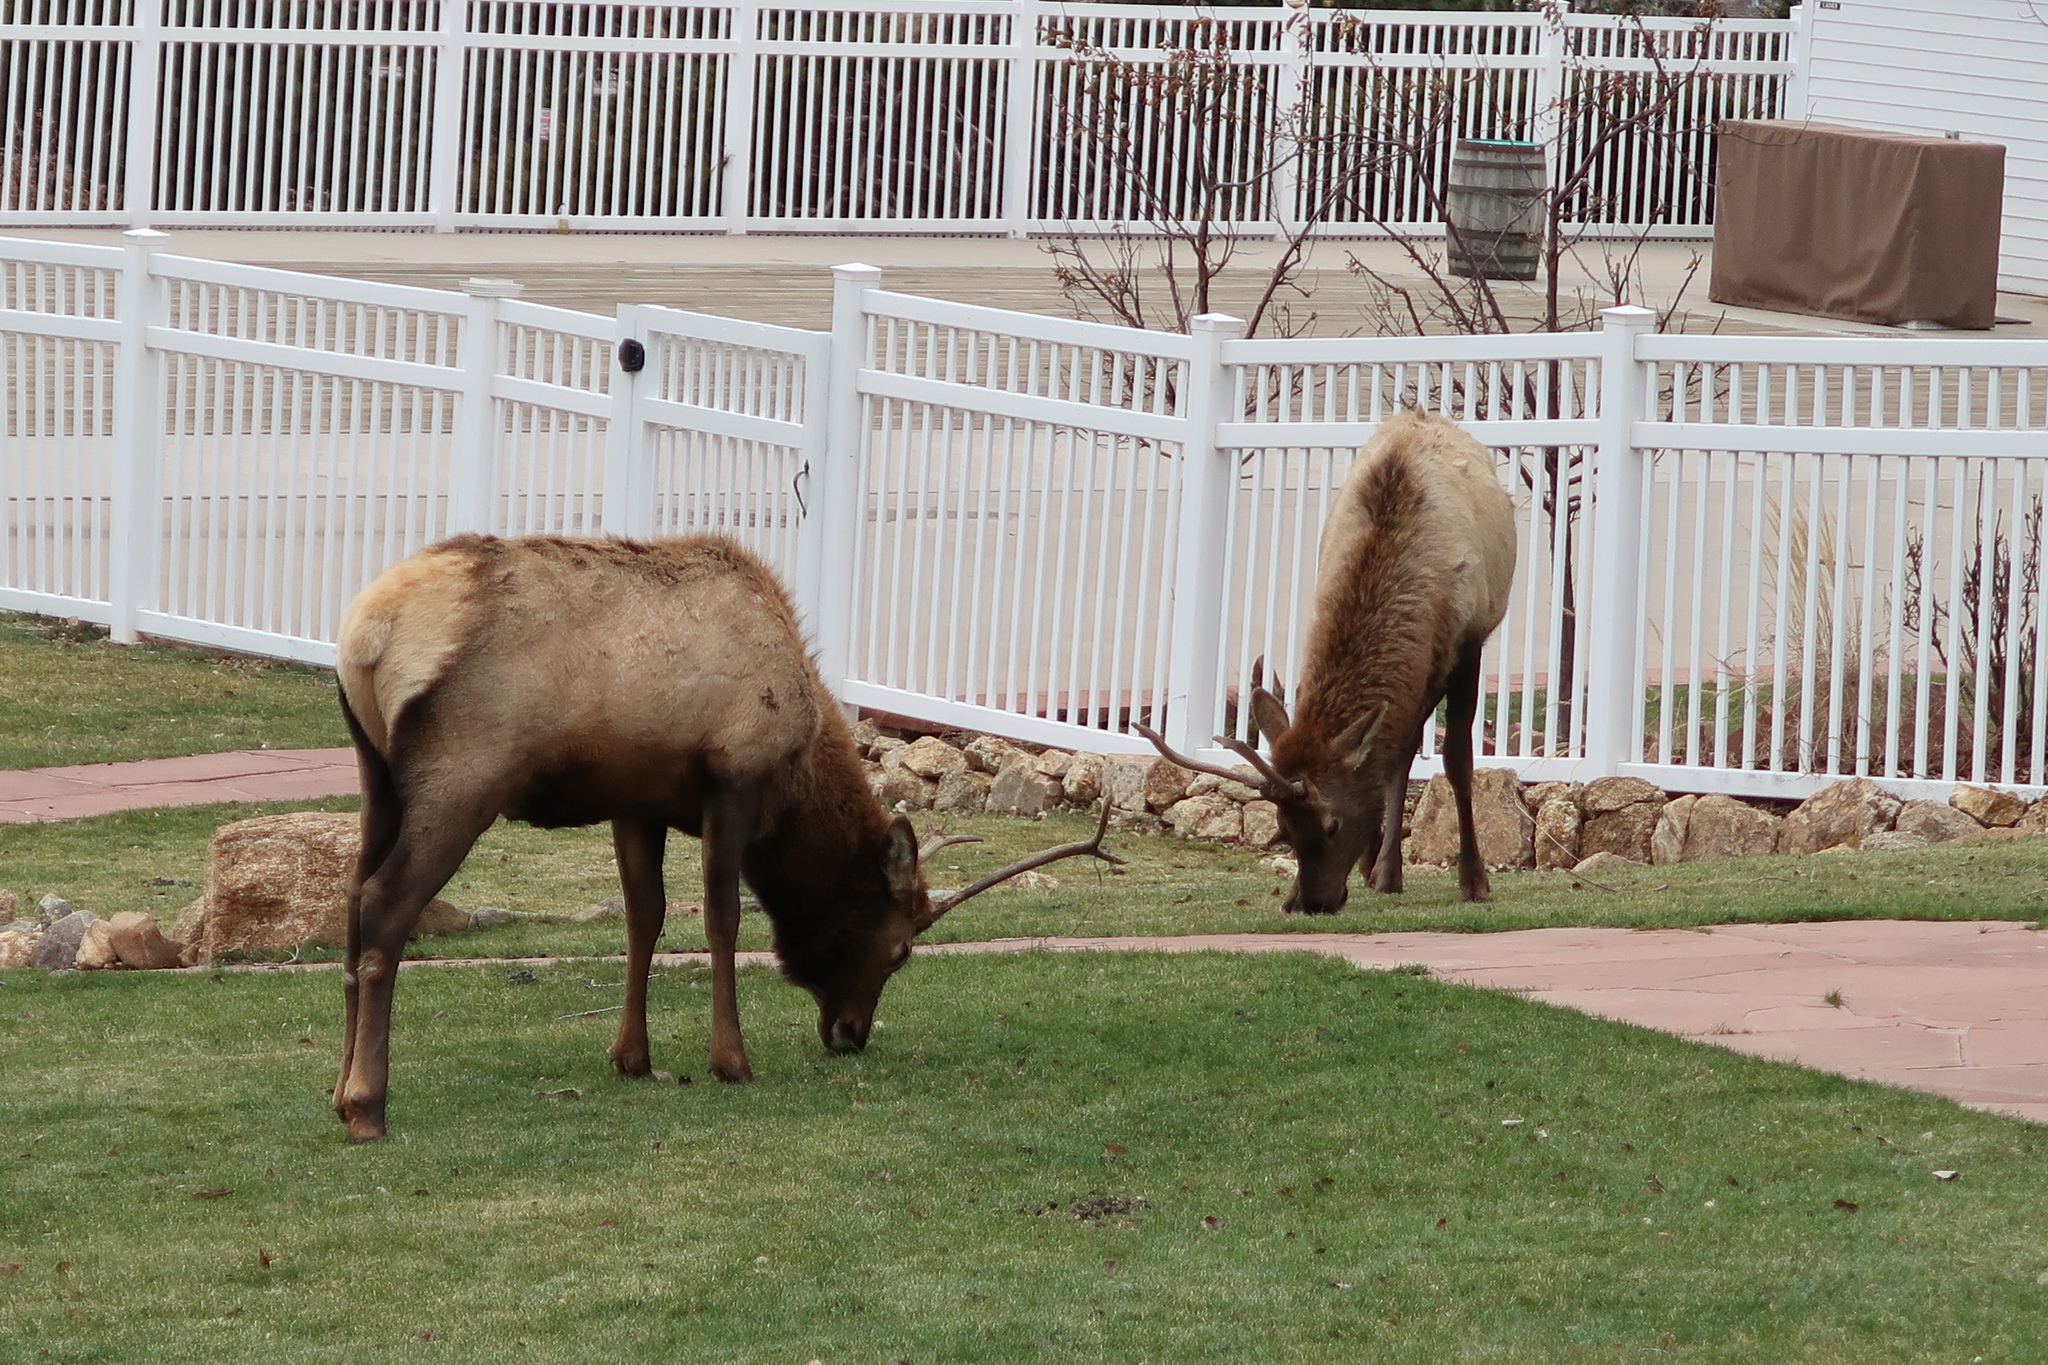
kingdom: Animalia
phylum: Chordata
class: Mammalia
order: Artiodactyla
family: Cervidae
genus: Cervus
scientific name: Cervus elaphus
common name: Red deer
